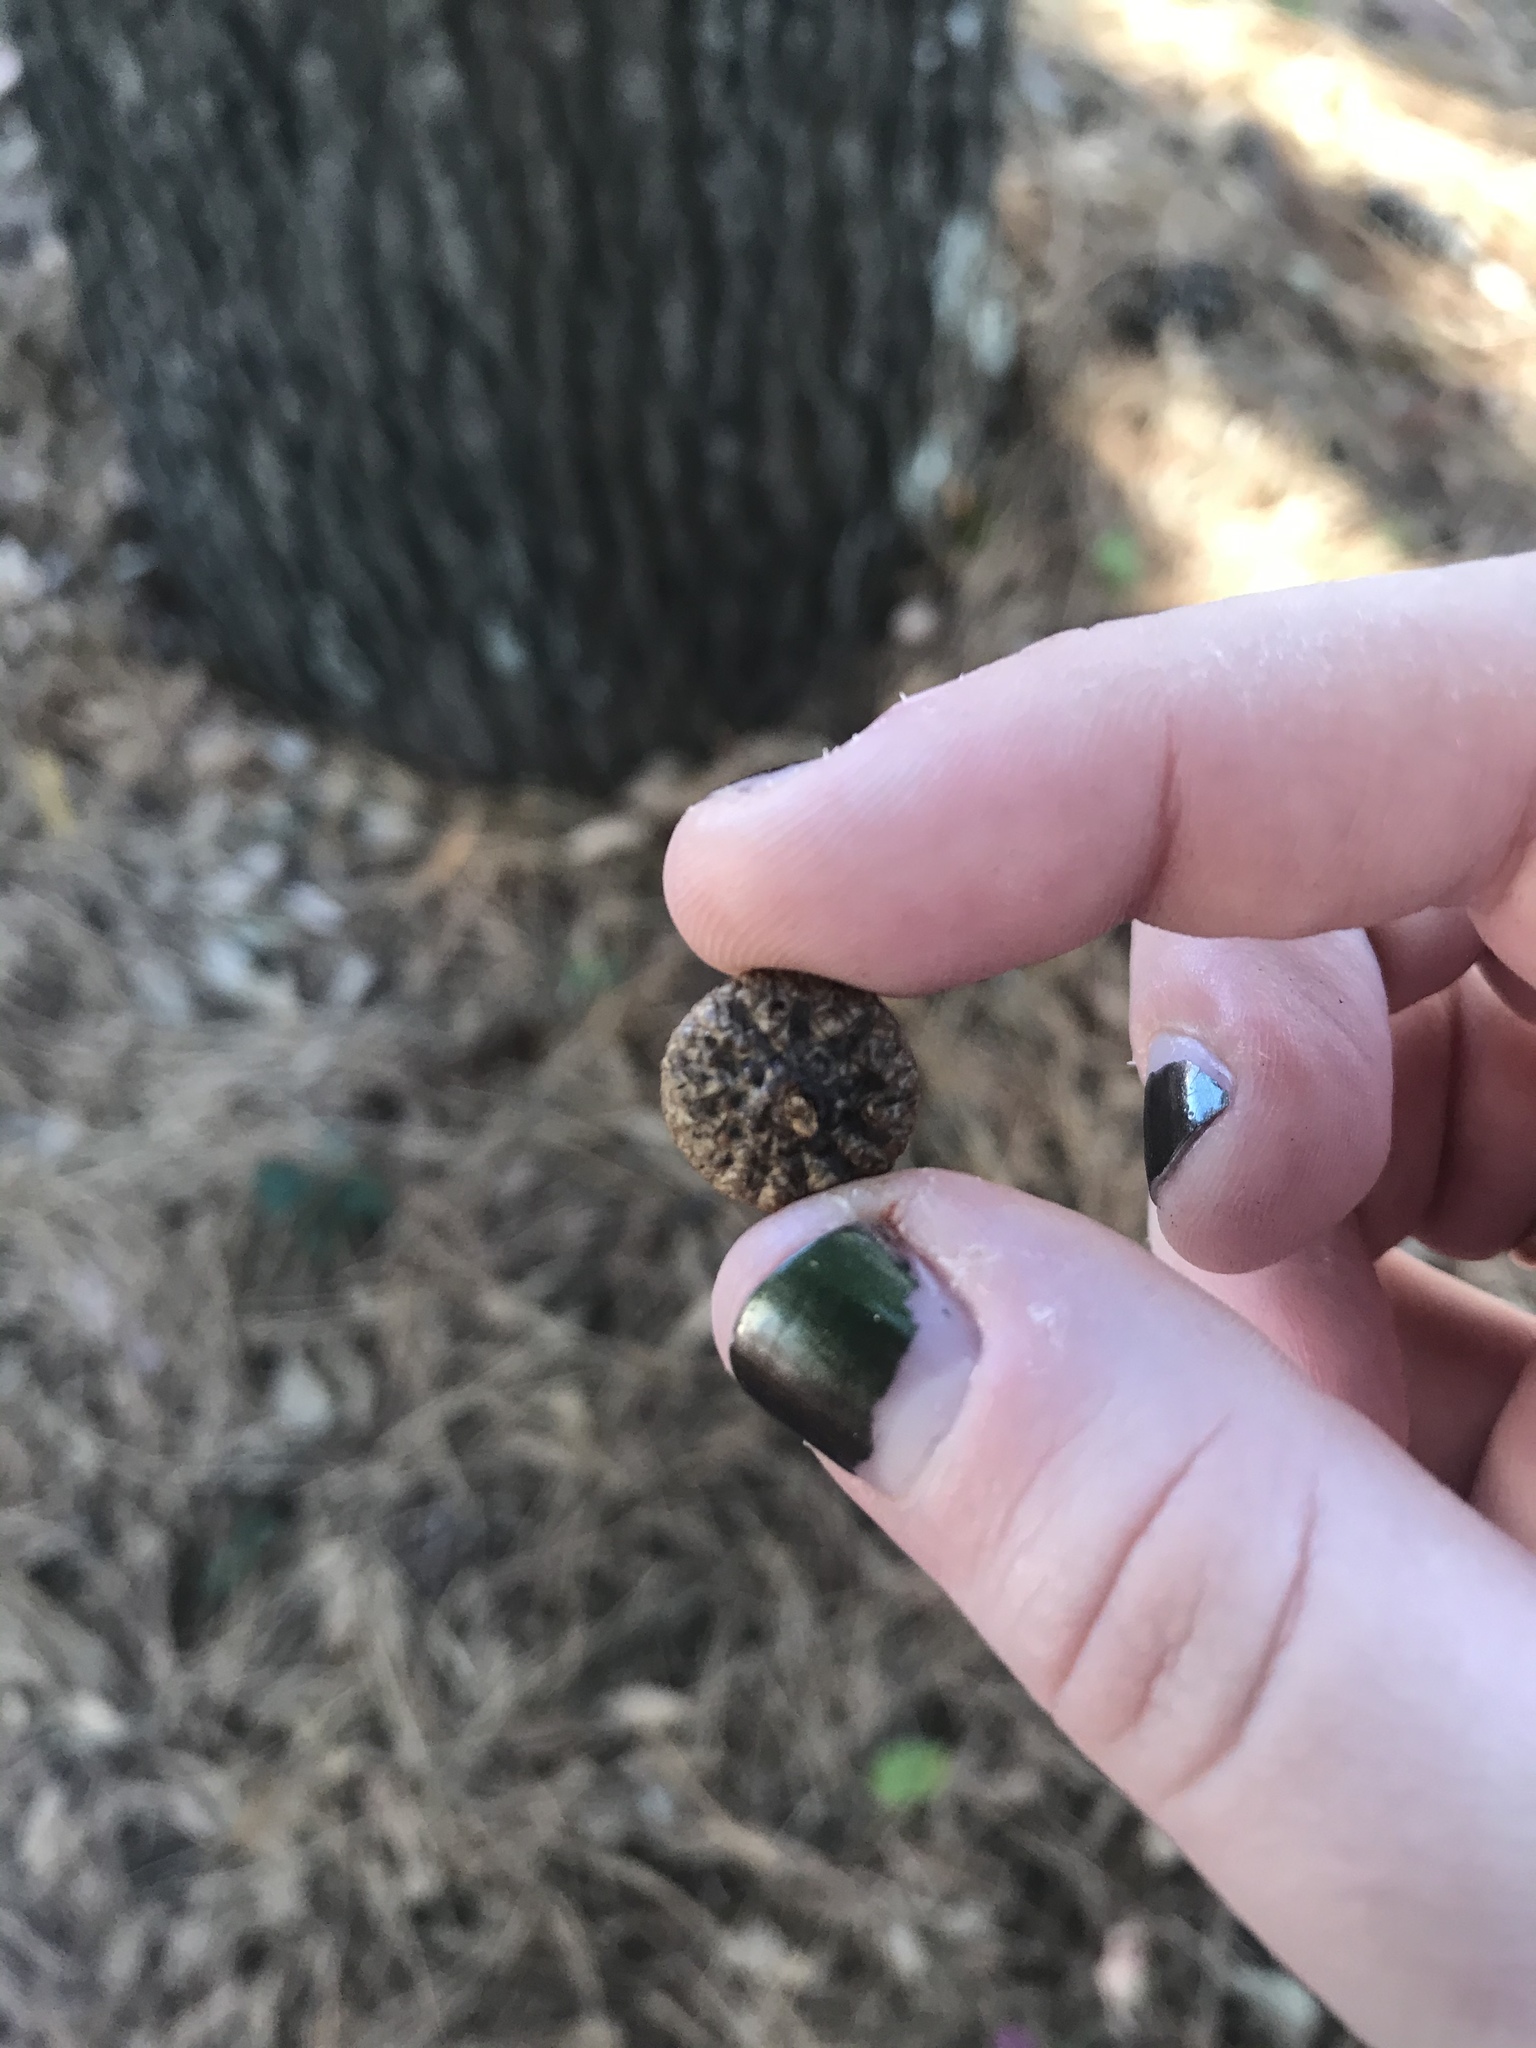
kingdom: Plantae
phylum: Tracheophyta
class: Magnoliopsida
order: Fagales
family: Fagaceae
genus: Quercus
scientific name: Quercus falcata
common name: Southern red oak
